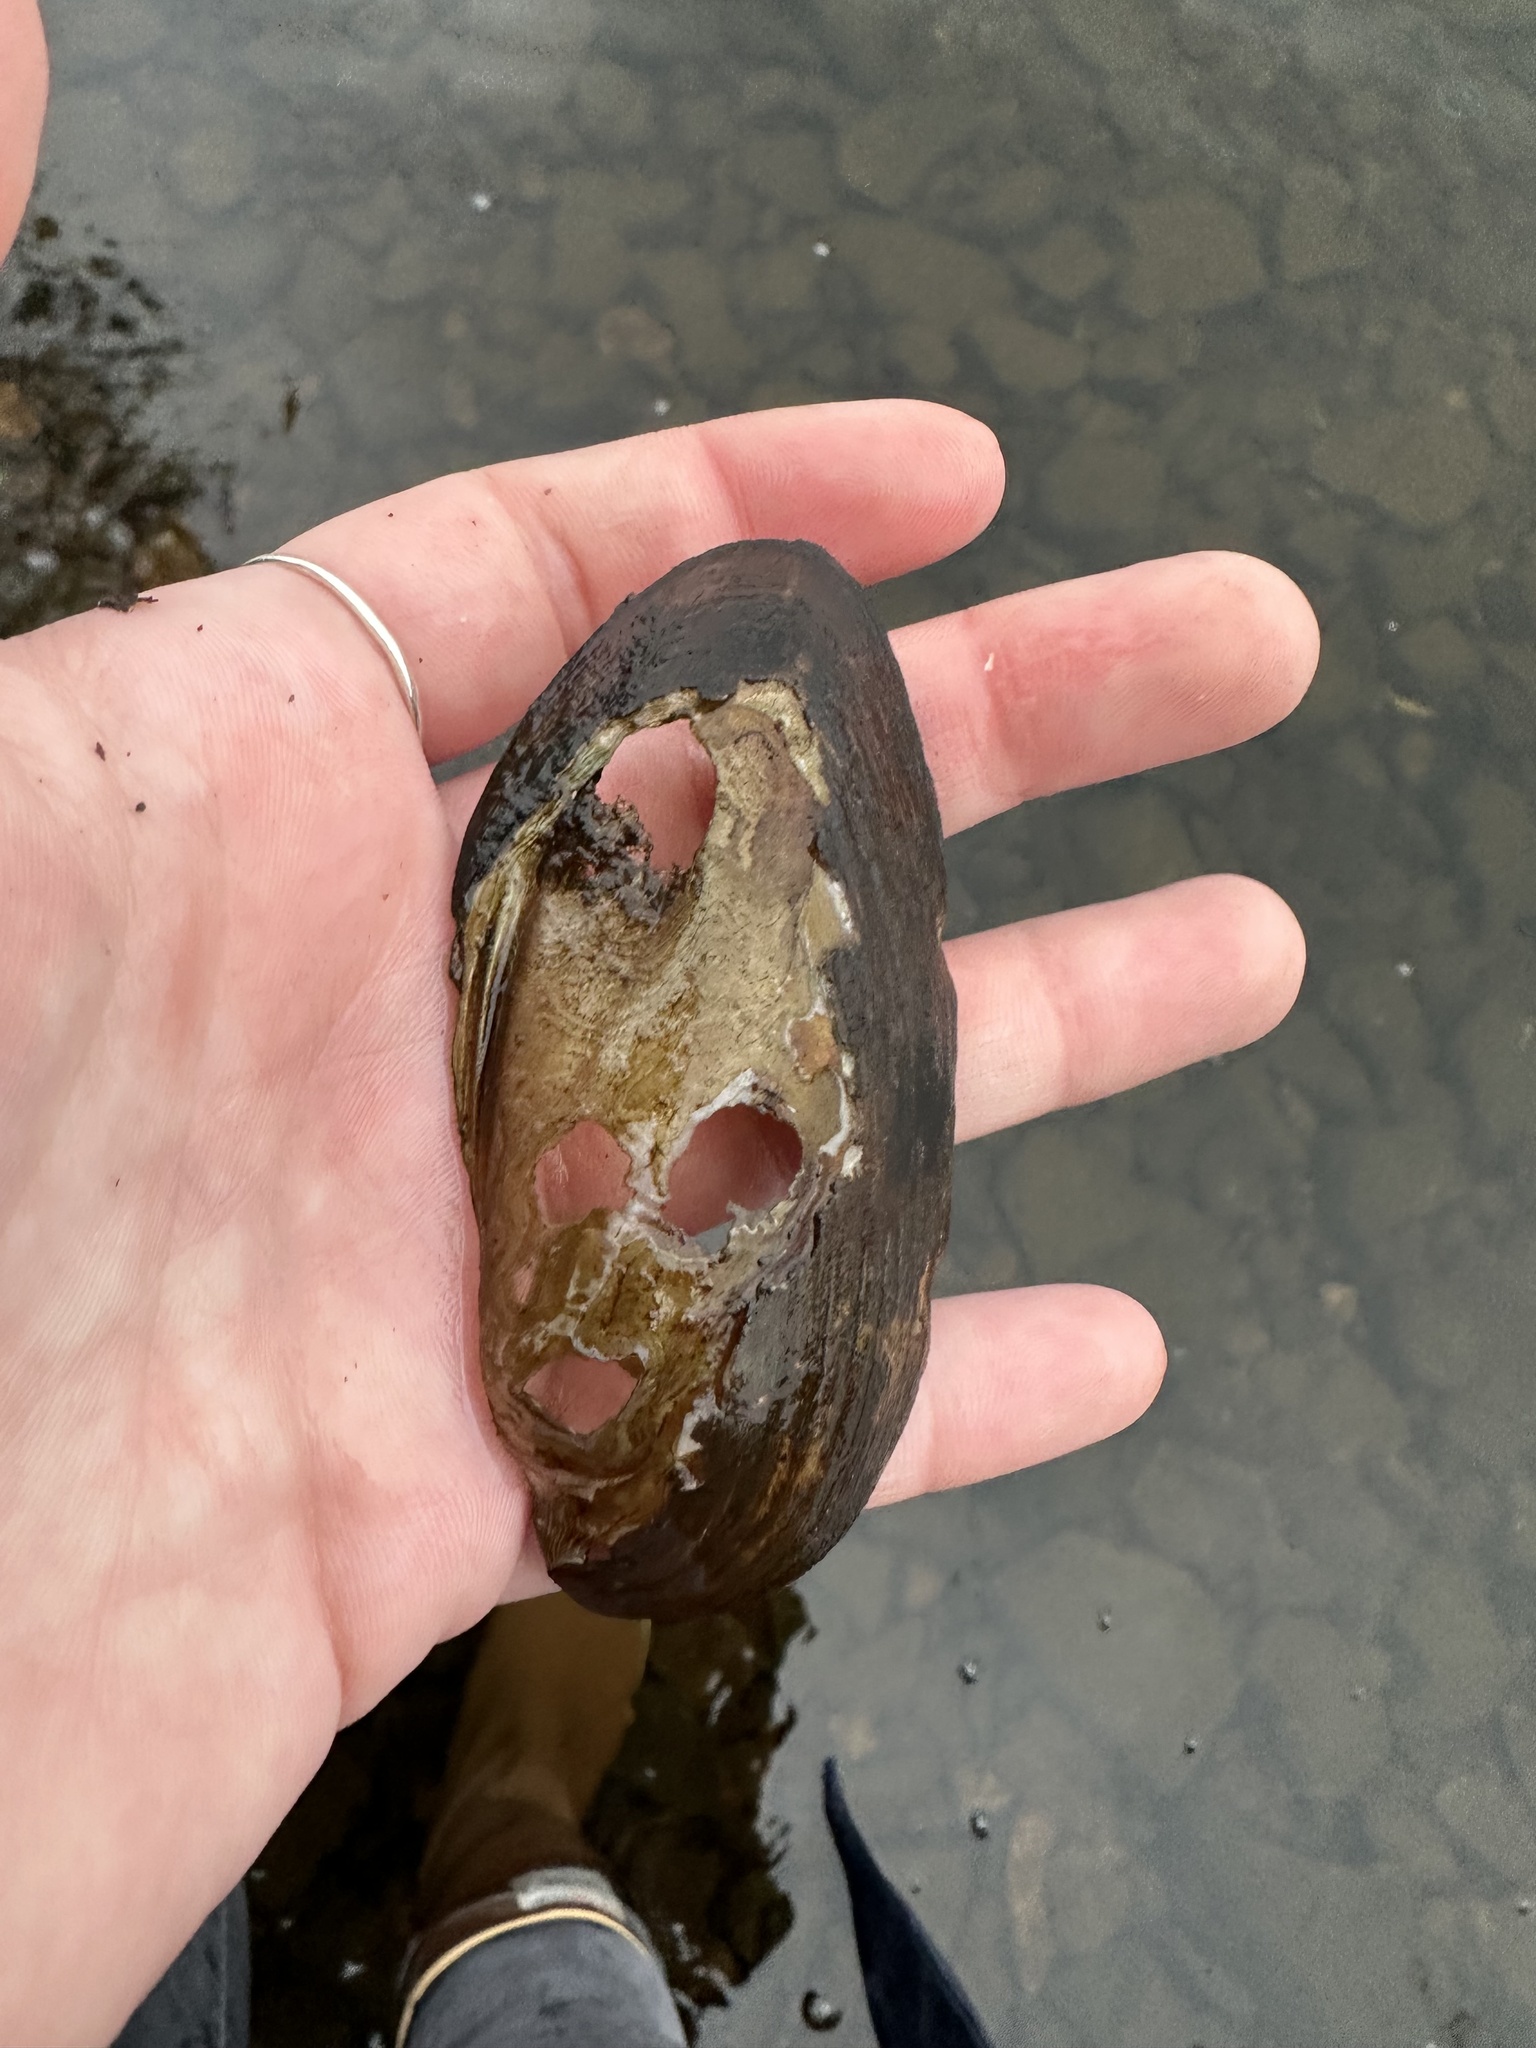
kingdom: Animalia
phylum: Mollusca
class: Bivalvia
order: Unionida
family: Unionidae
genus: Elliptio
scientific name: Elliptio complanata
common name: Eastern elliptio
